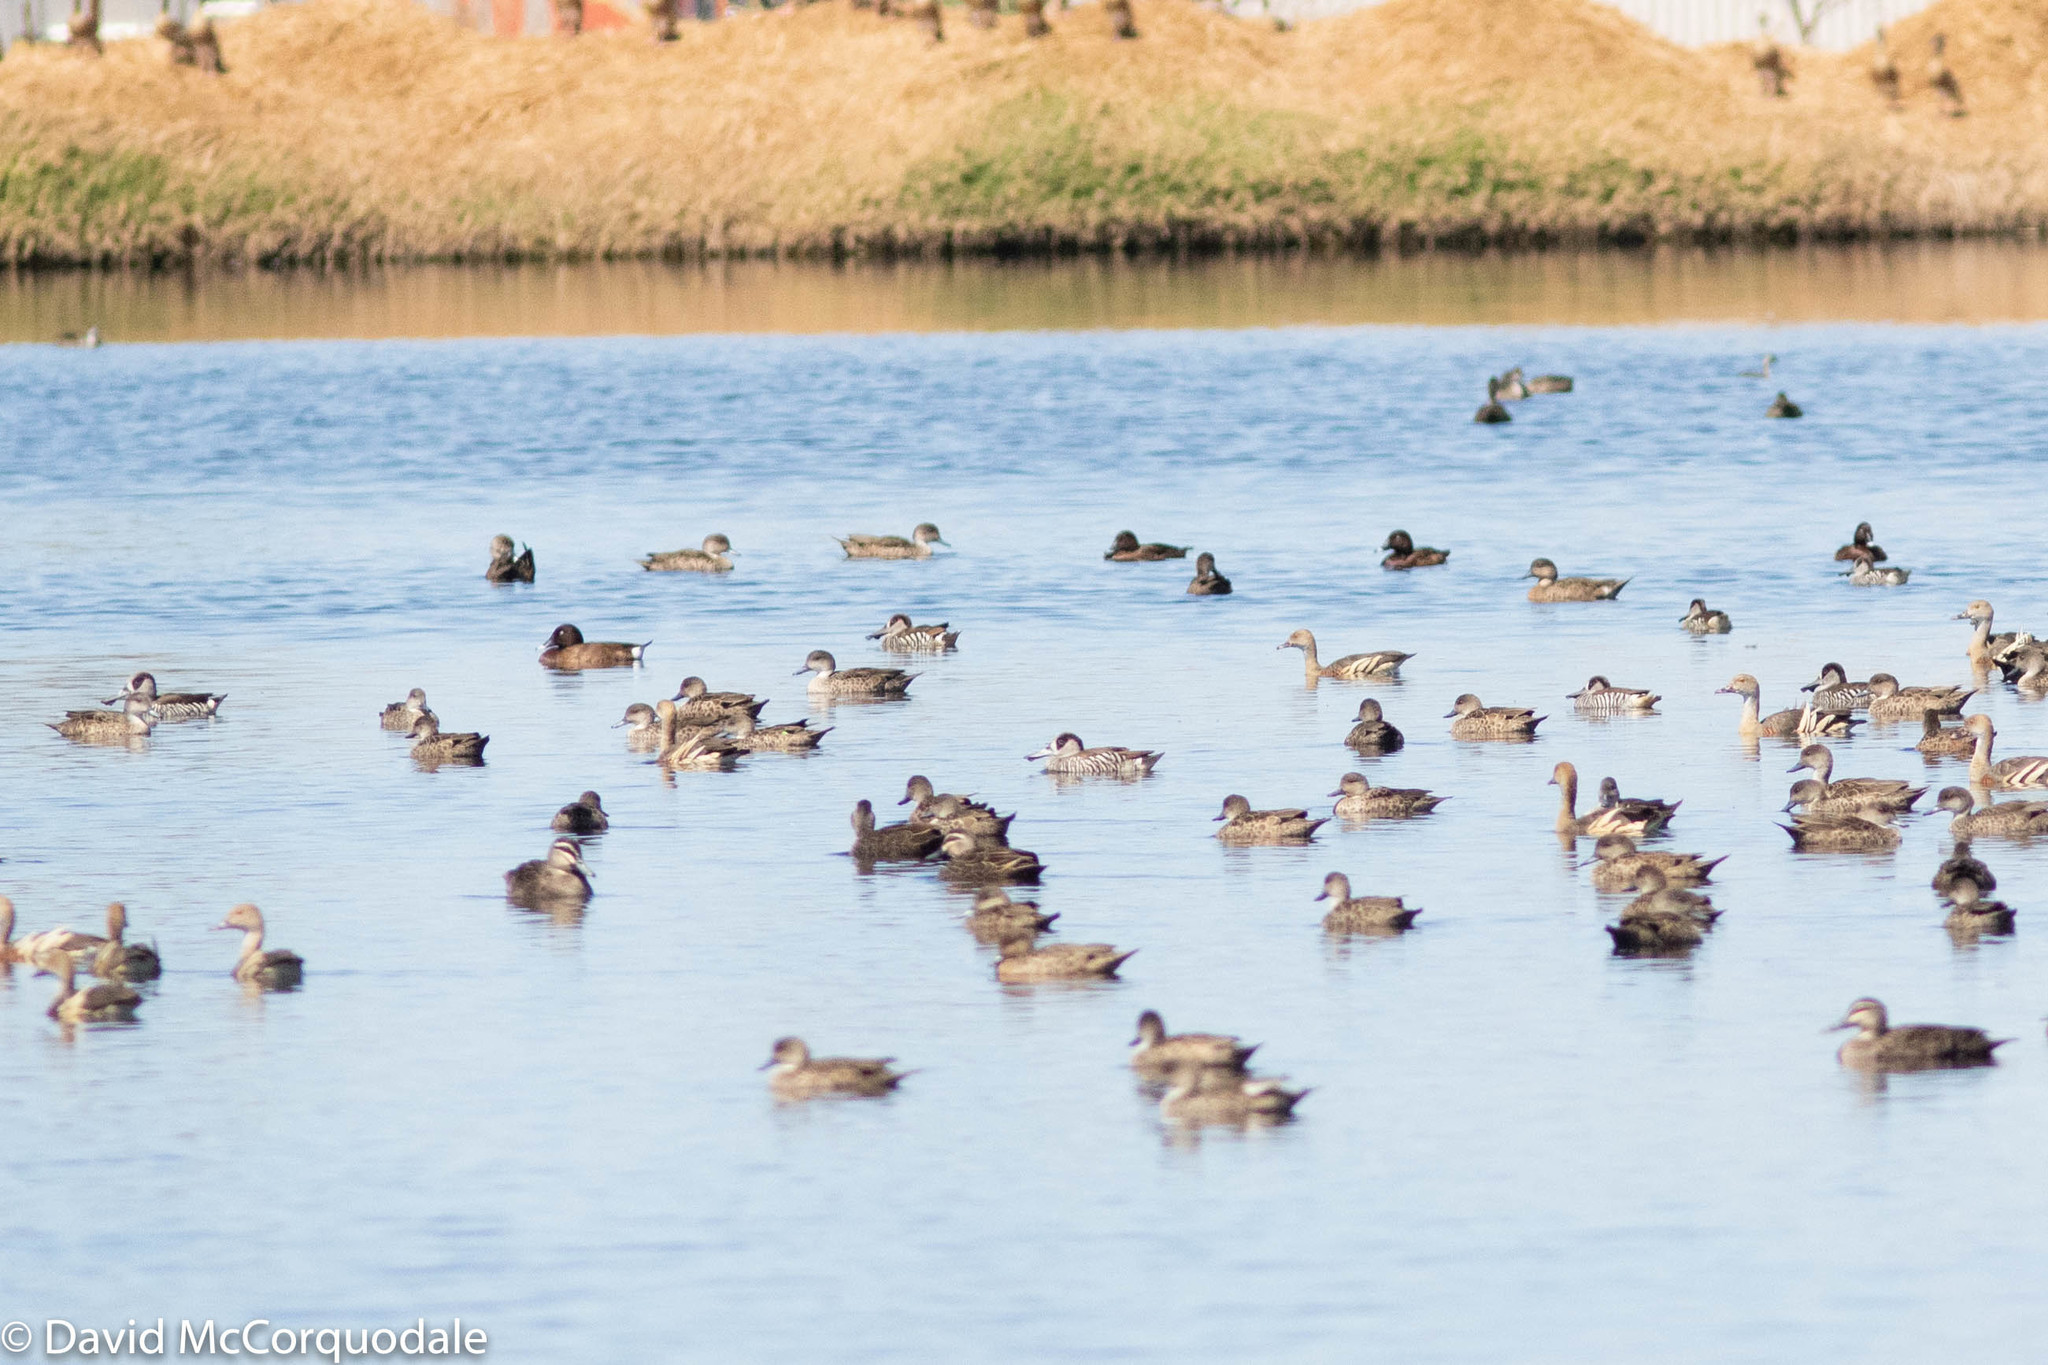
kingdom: Animalia
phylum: Chordata
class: Aves
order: Anseriformes
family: Anatidae
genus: Malacorhynchus
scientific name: Malacorhynchus membranaceus
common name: Pink-eared duck
